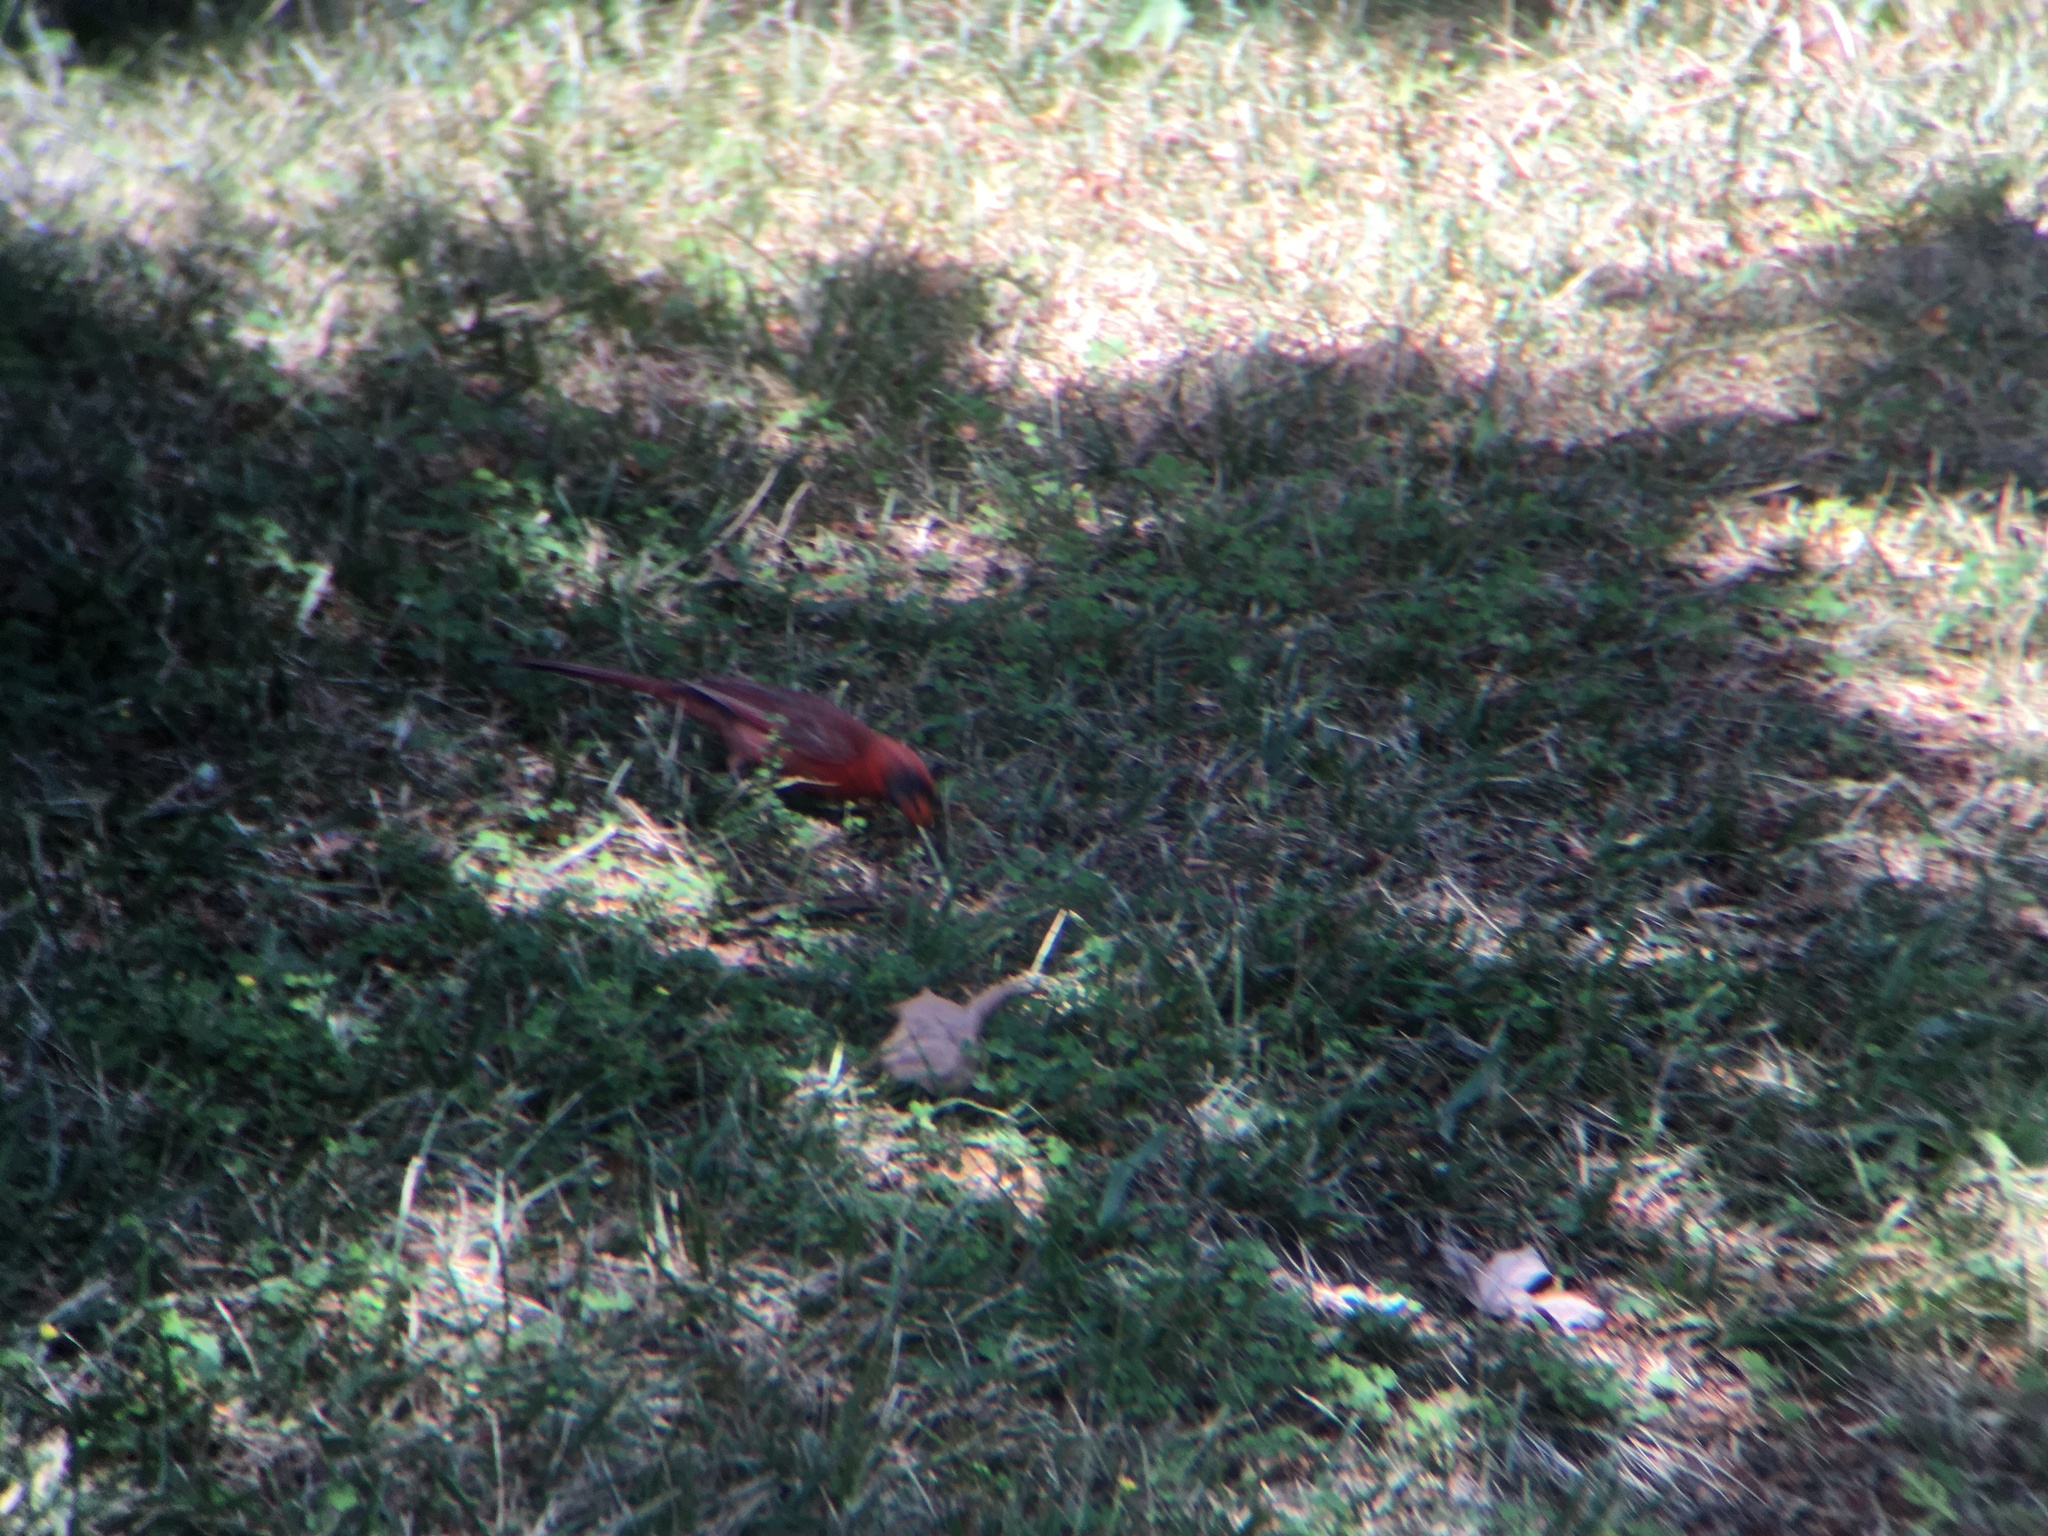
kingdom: Animalia
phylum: Chordata
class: Aves
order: Passeriformes
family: Cardinalidae
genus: Cardinalis
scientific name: Cardinalis cardinalis
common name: Northern cardinal
